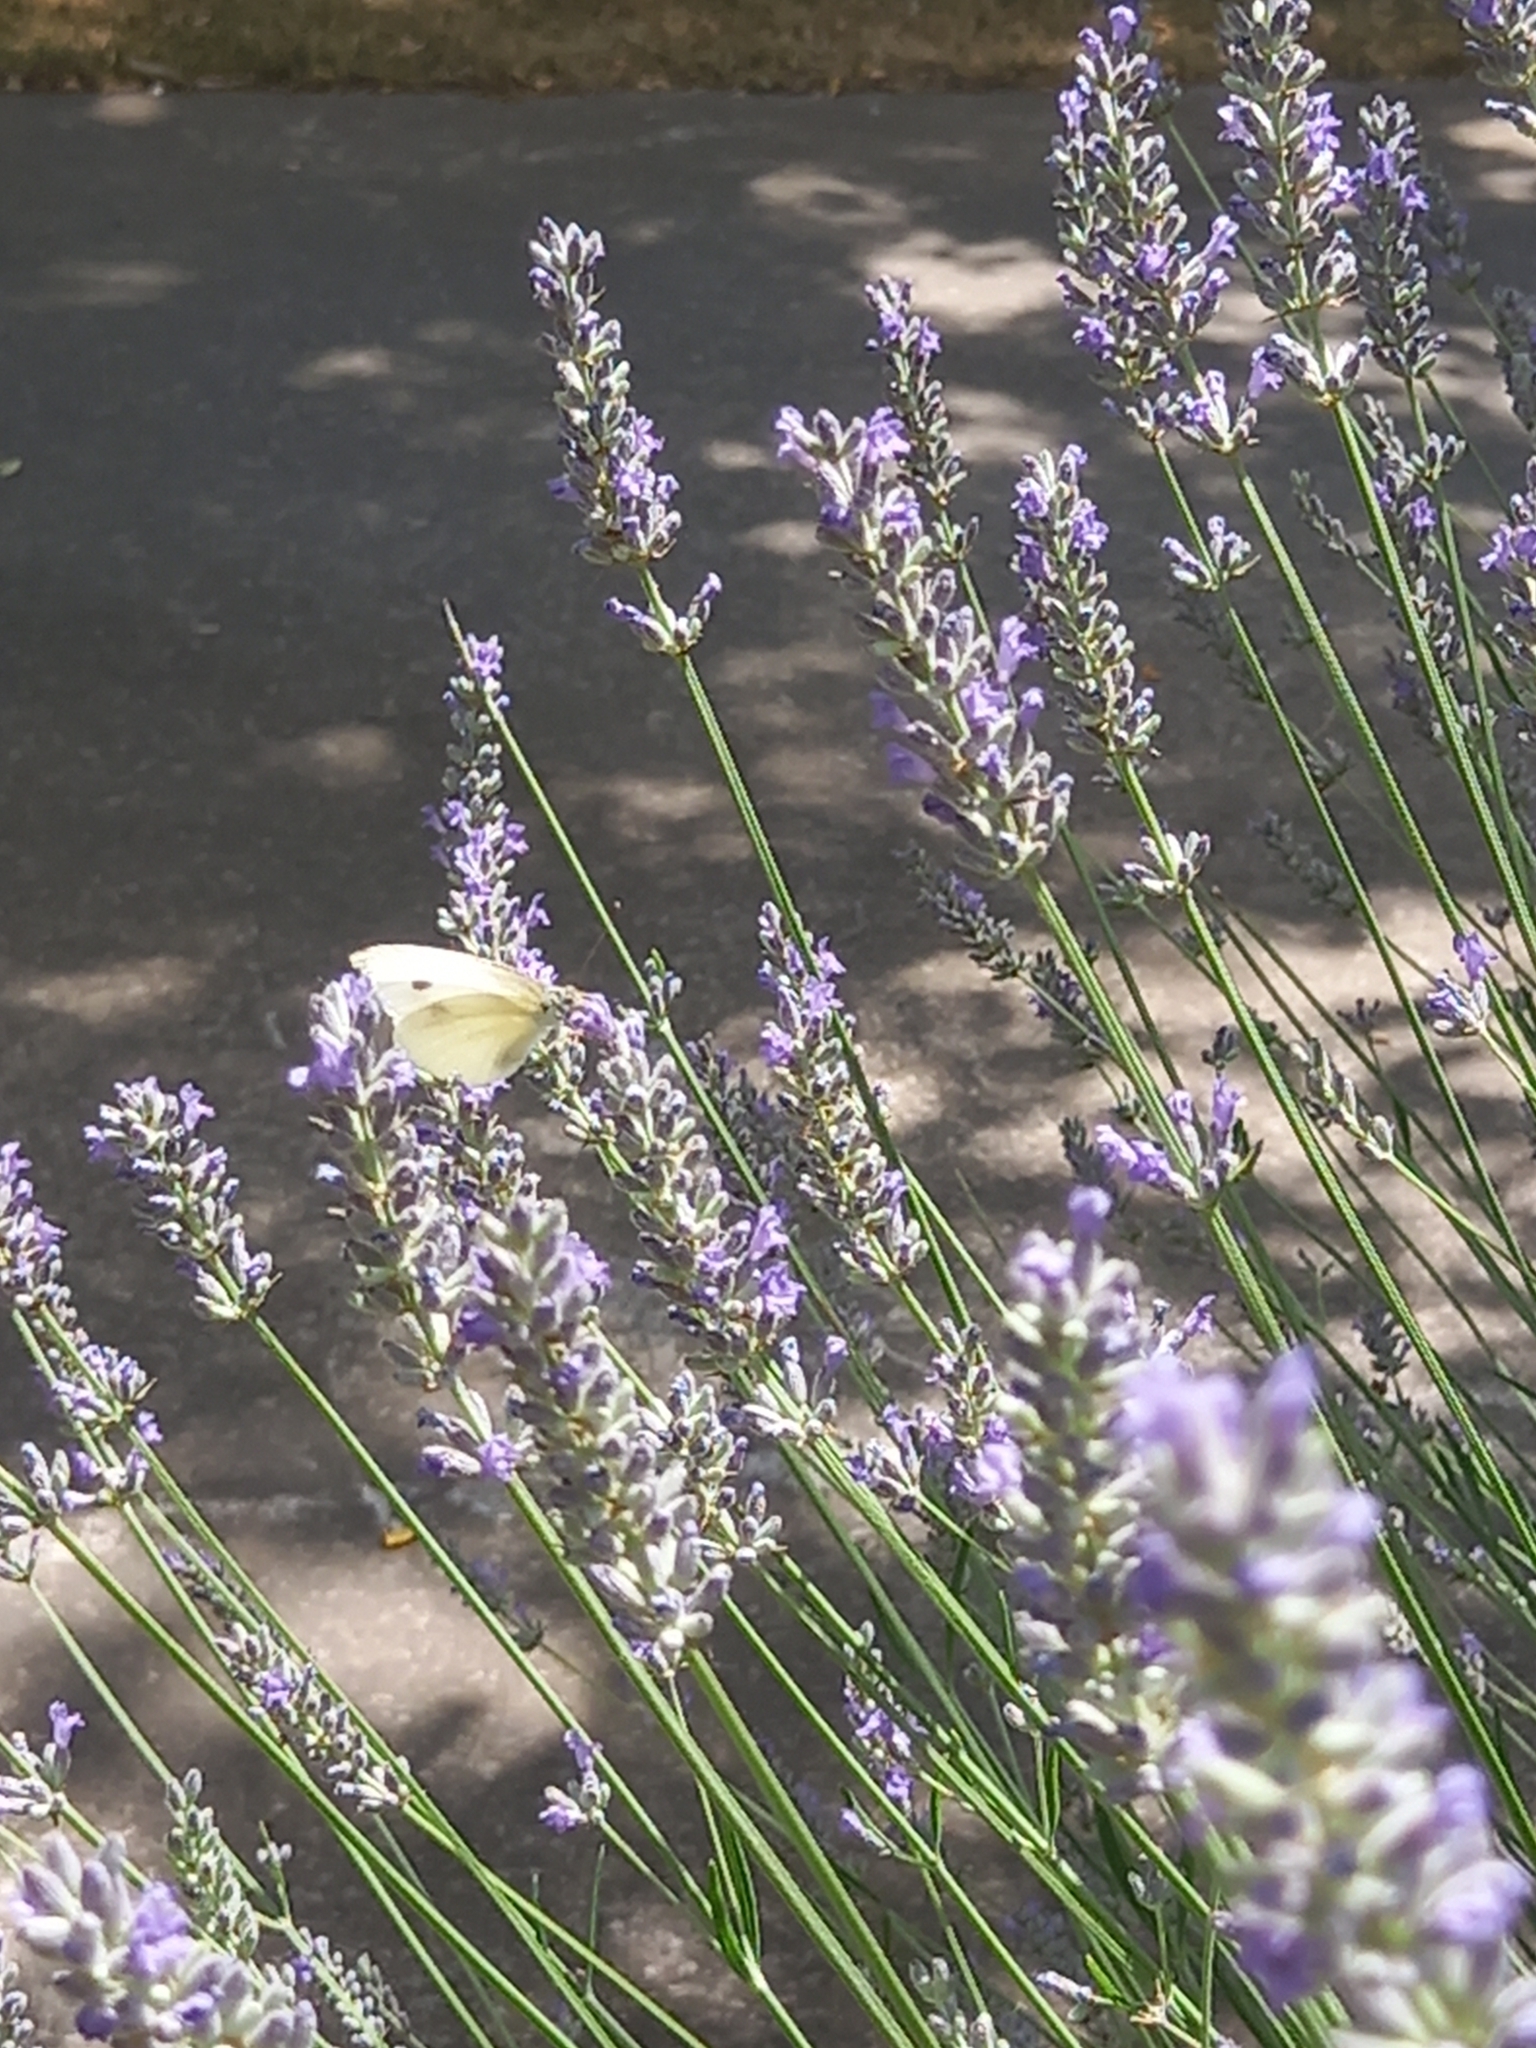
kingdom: Animalia
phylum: Arthropoda
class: Insecta
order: Lepidoptera
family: Pieridae
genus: Pieris
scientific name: Pieris rapae
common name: Small white
